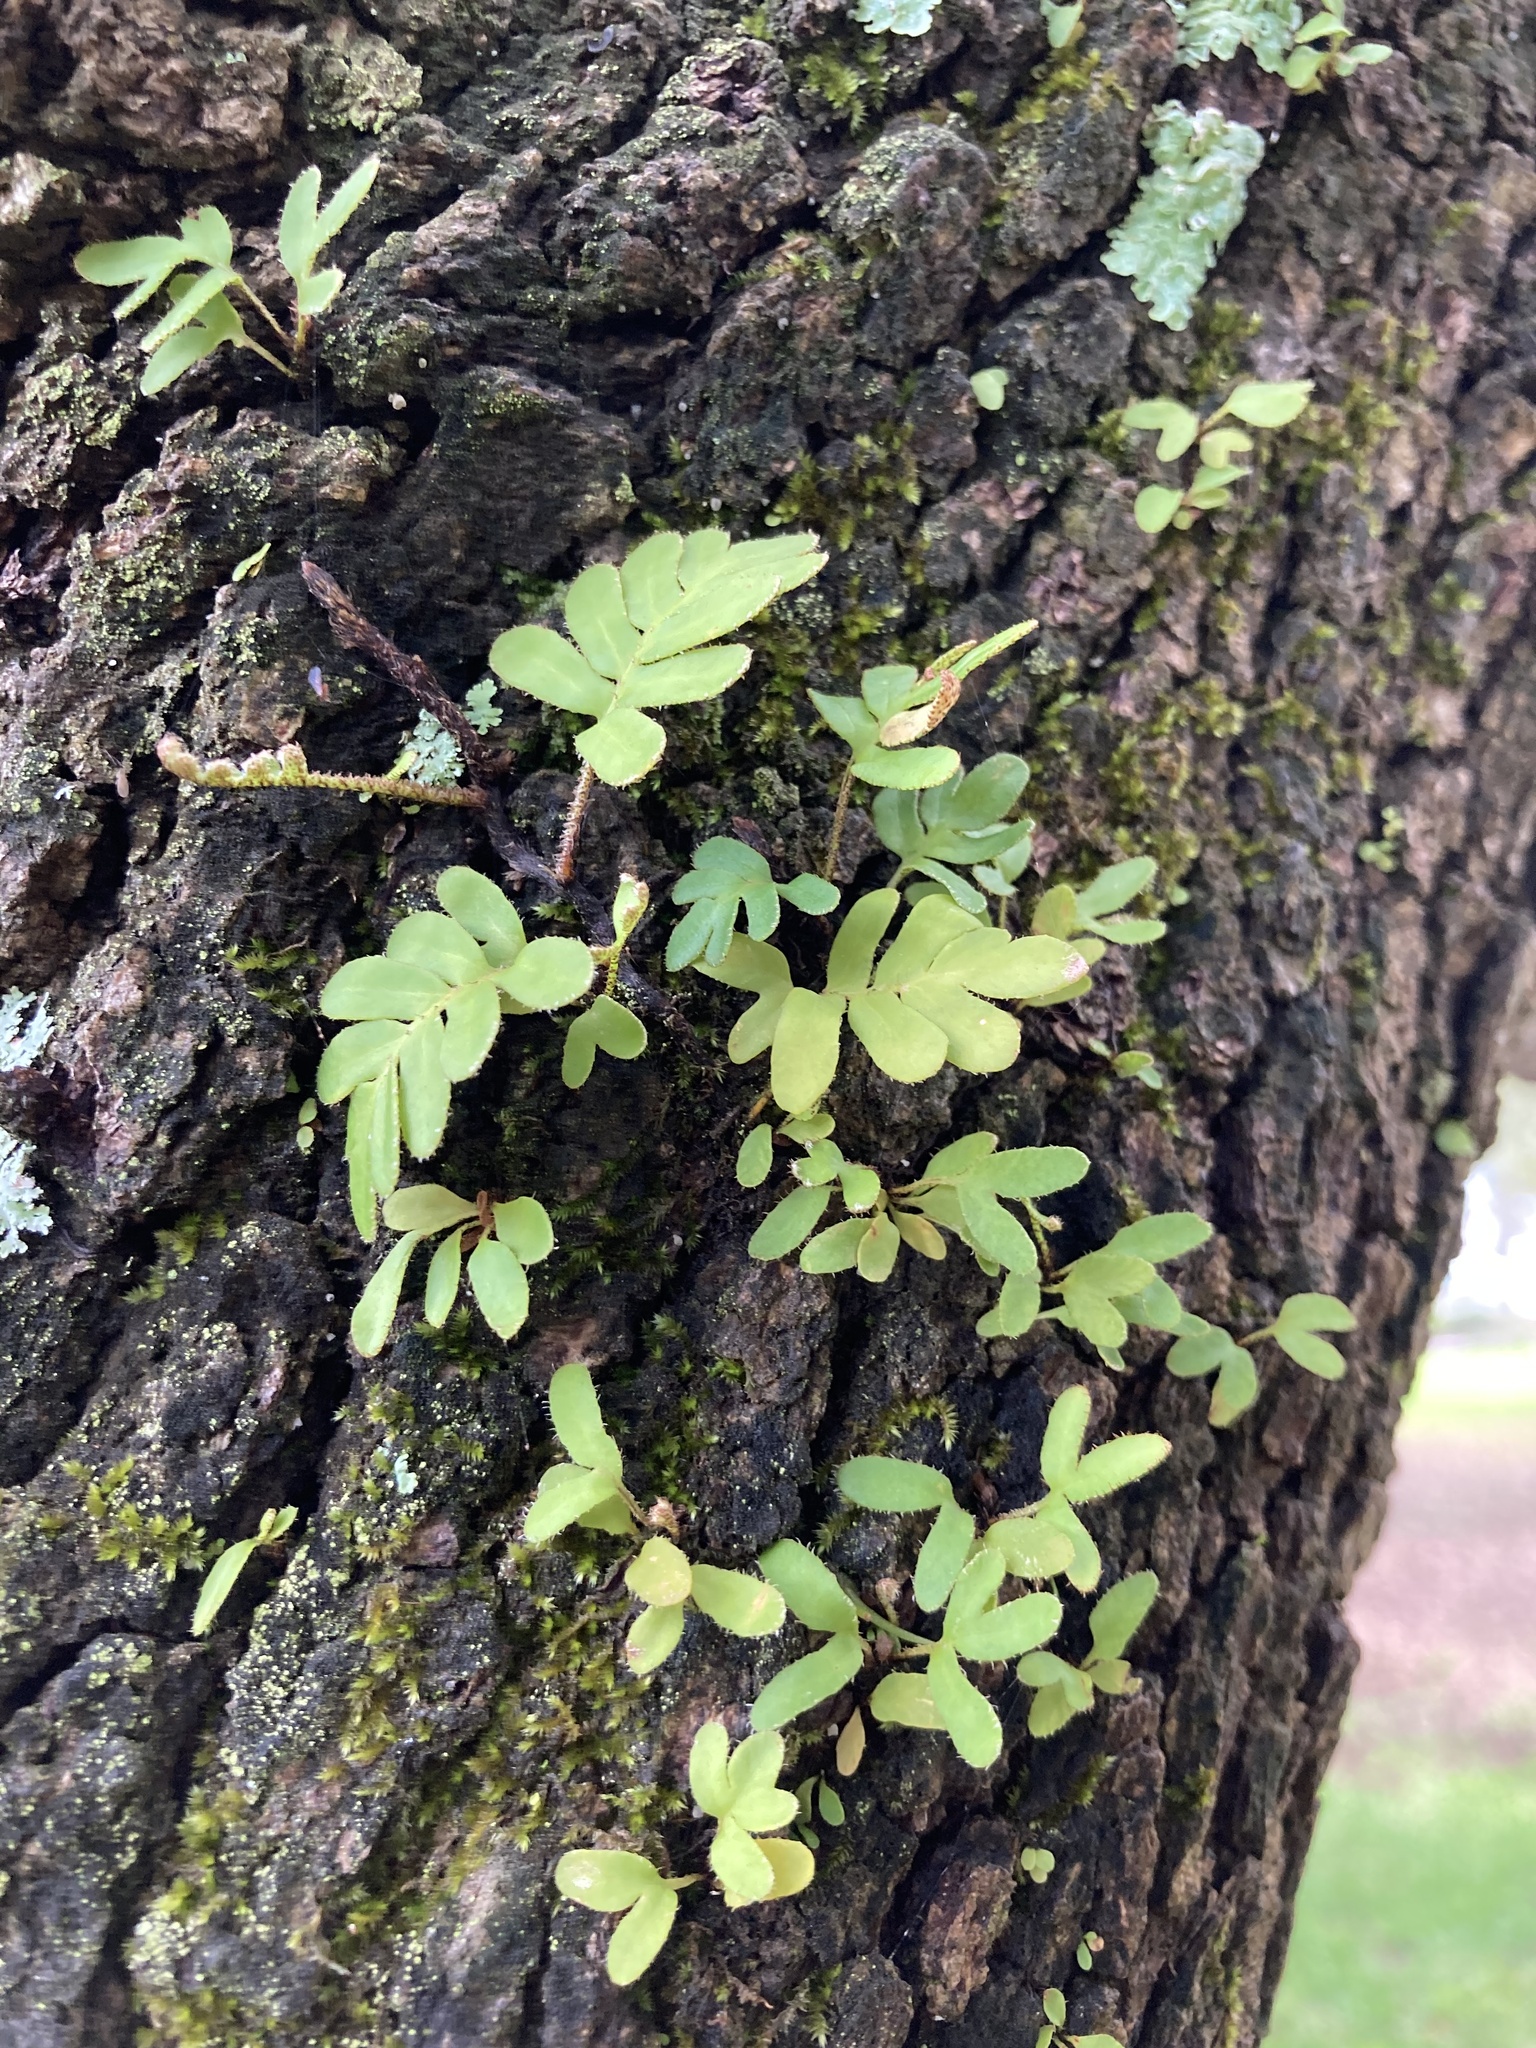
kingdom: Plantae
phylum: Tracheophyta
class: Polypodiopsida
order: Polypodiales
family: Polypodiaceae
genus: Pleopeltis
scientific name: Pleopeltis michauxiana
